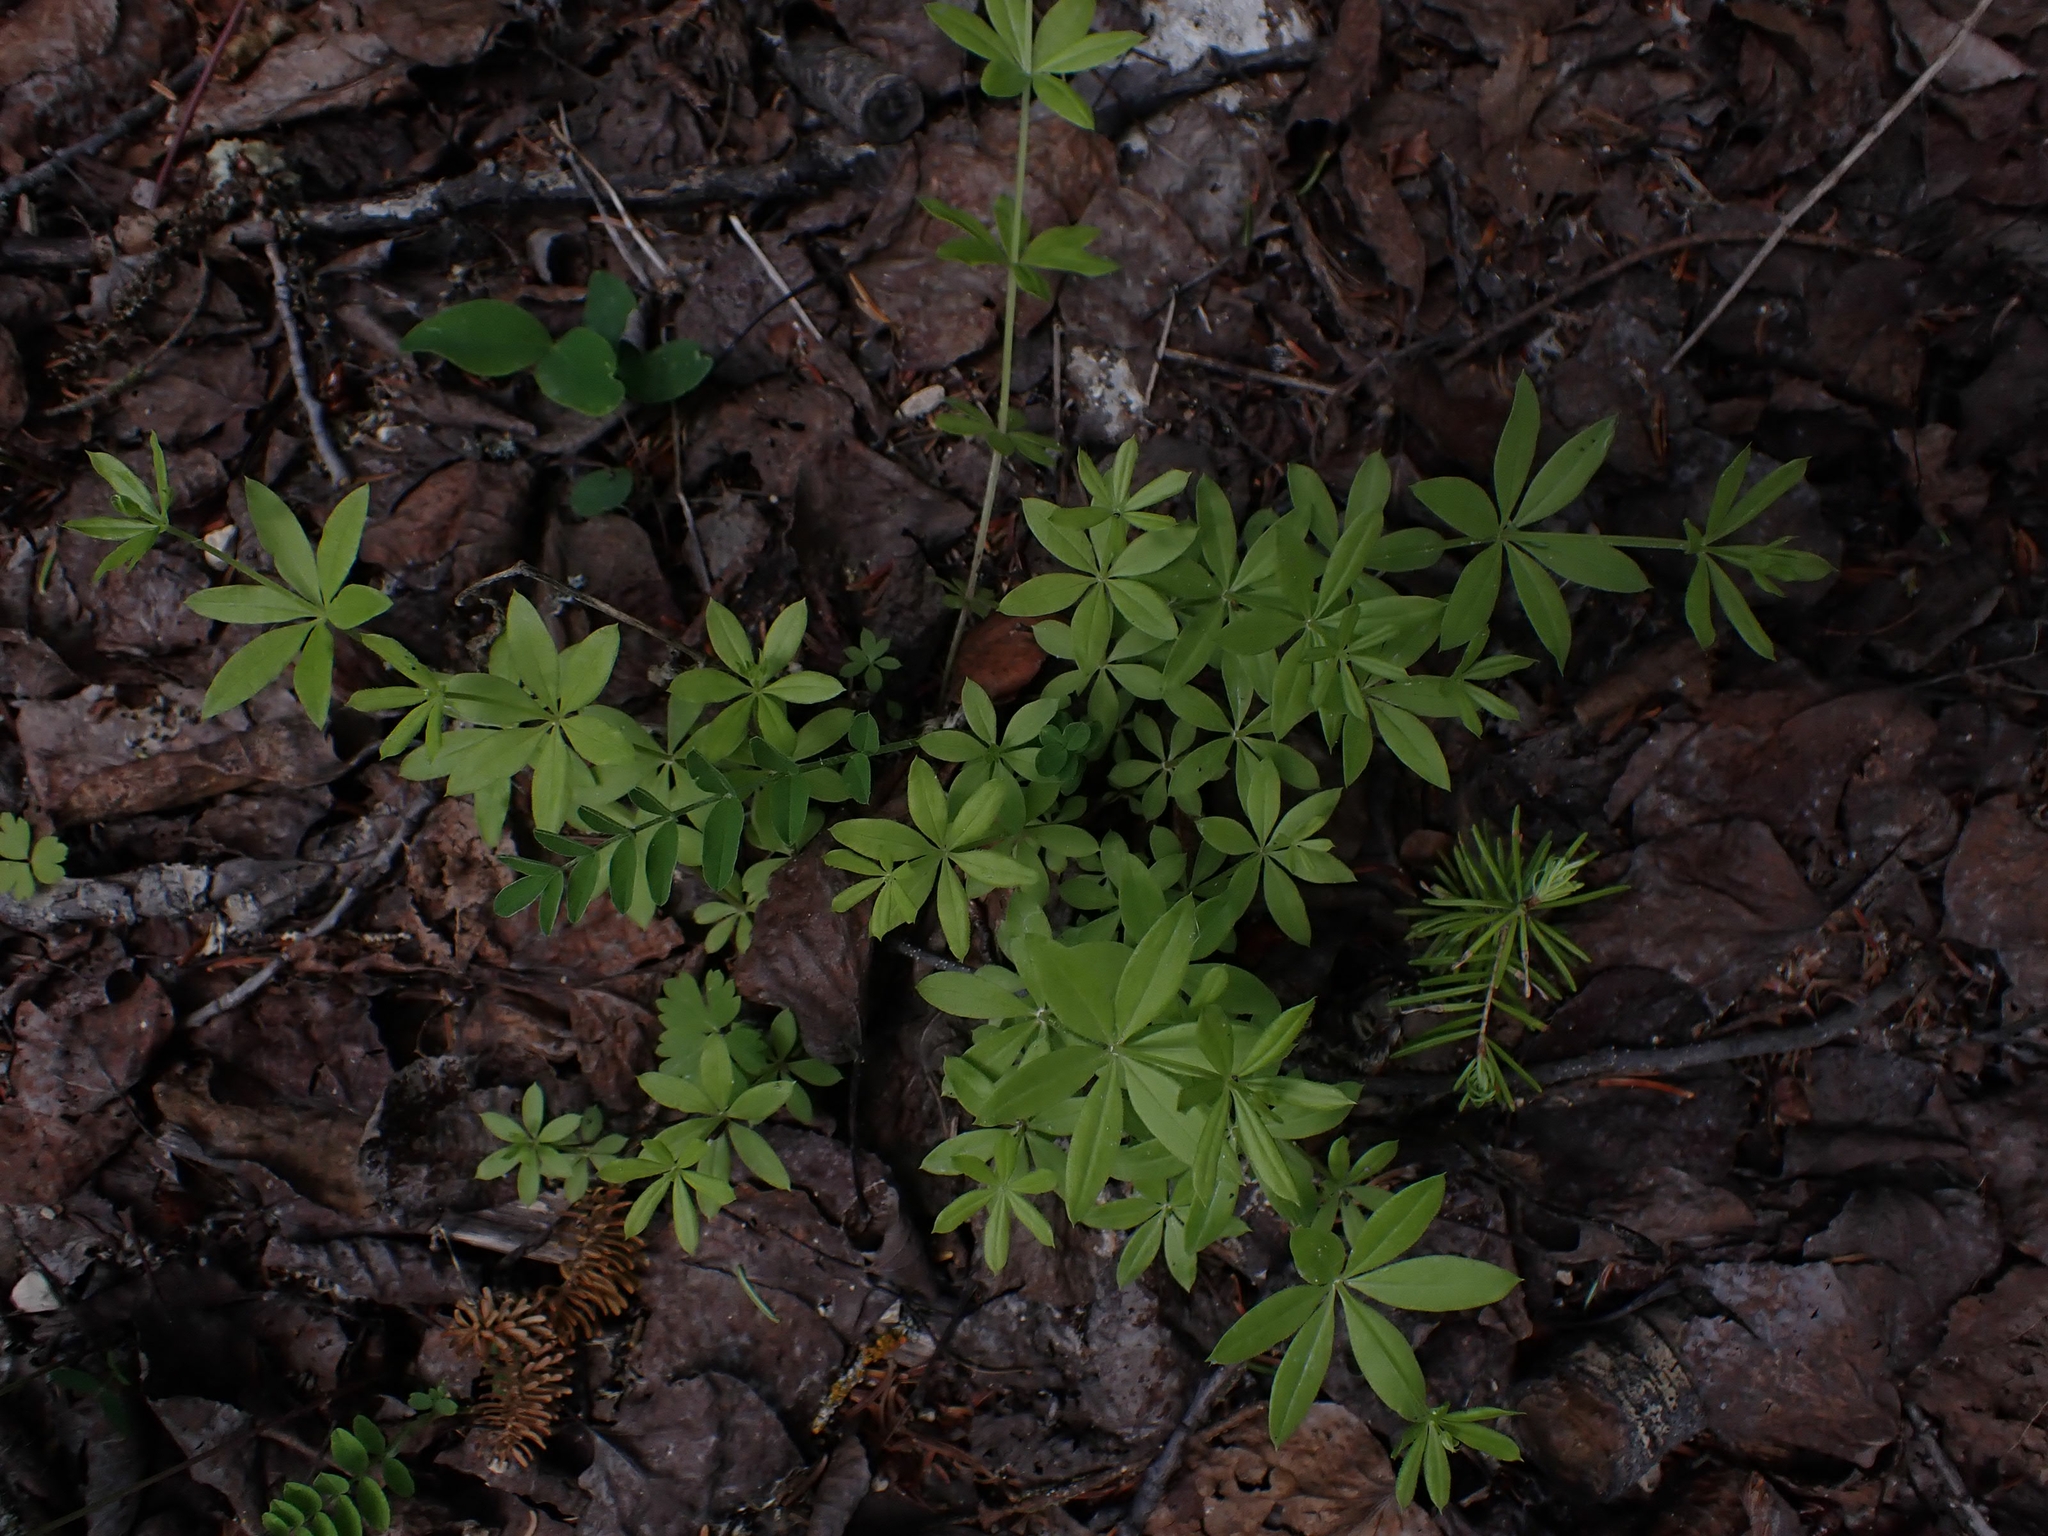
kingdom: Plantae
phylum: Tracheophyta
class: Magnoliopsida
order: Gentianales
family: Rubiaceae
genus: Galium
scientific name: Galium triflorum
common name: Fragrant bedstraw
